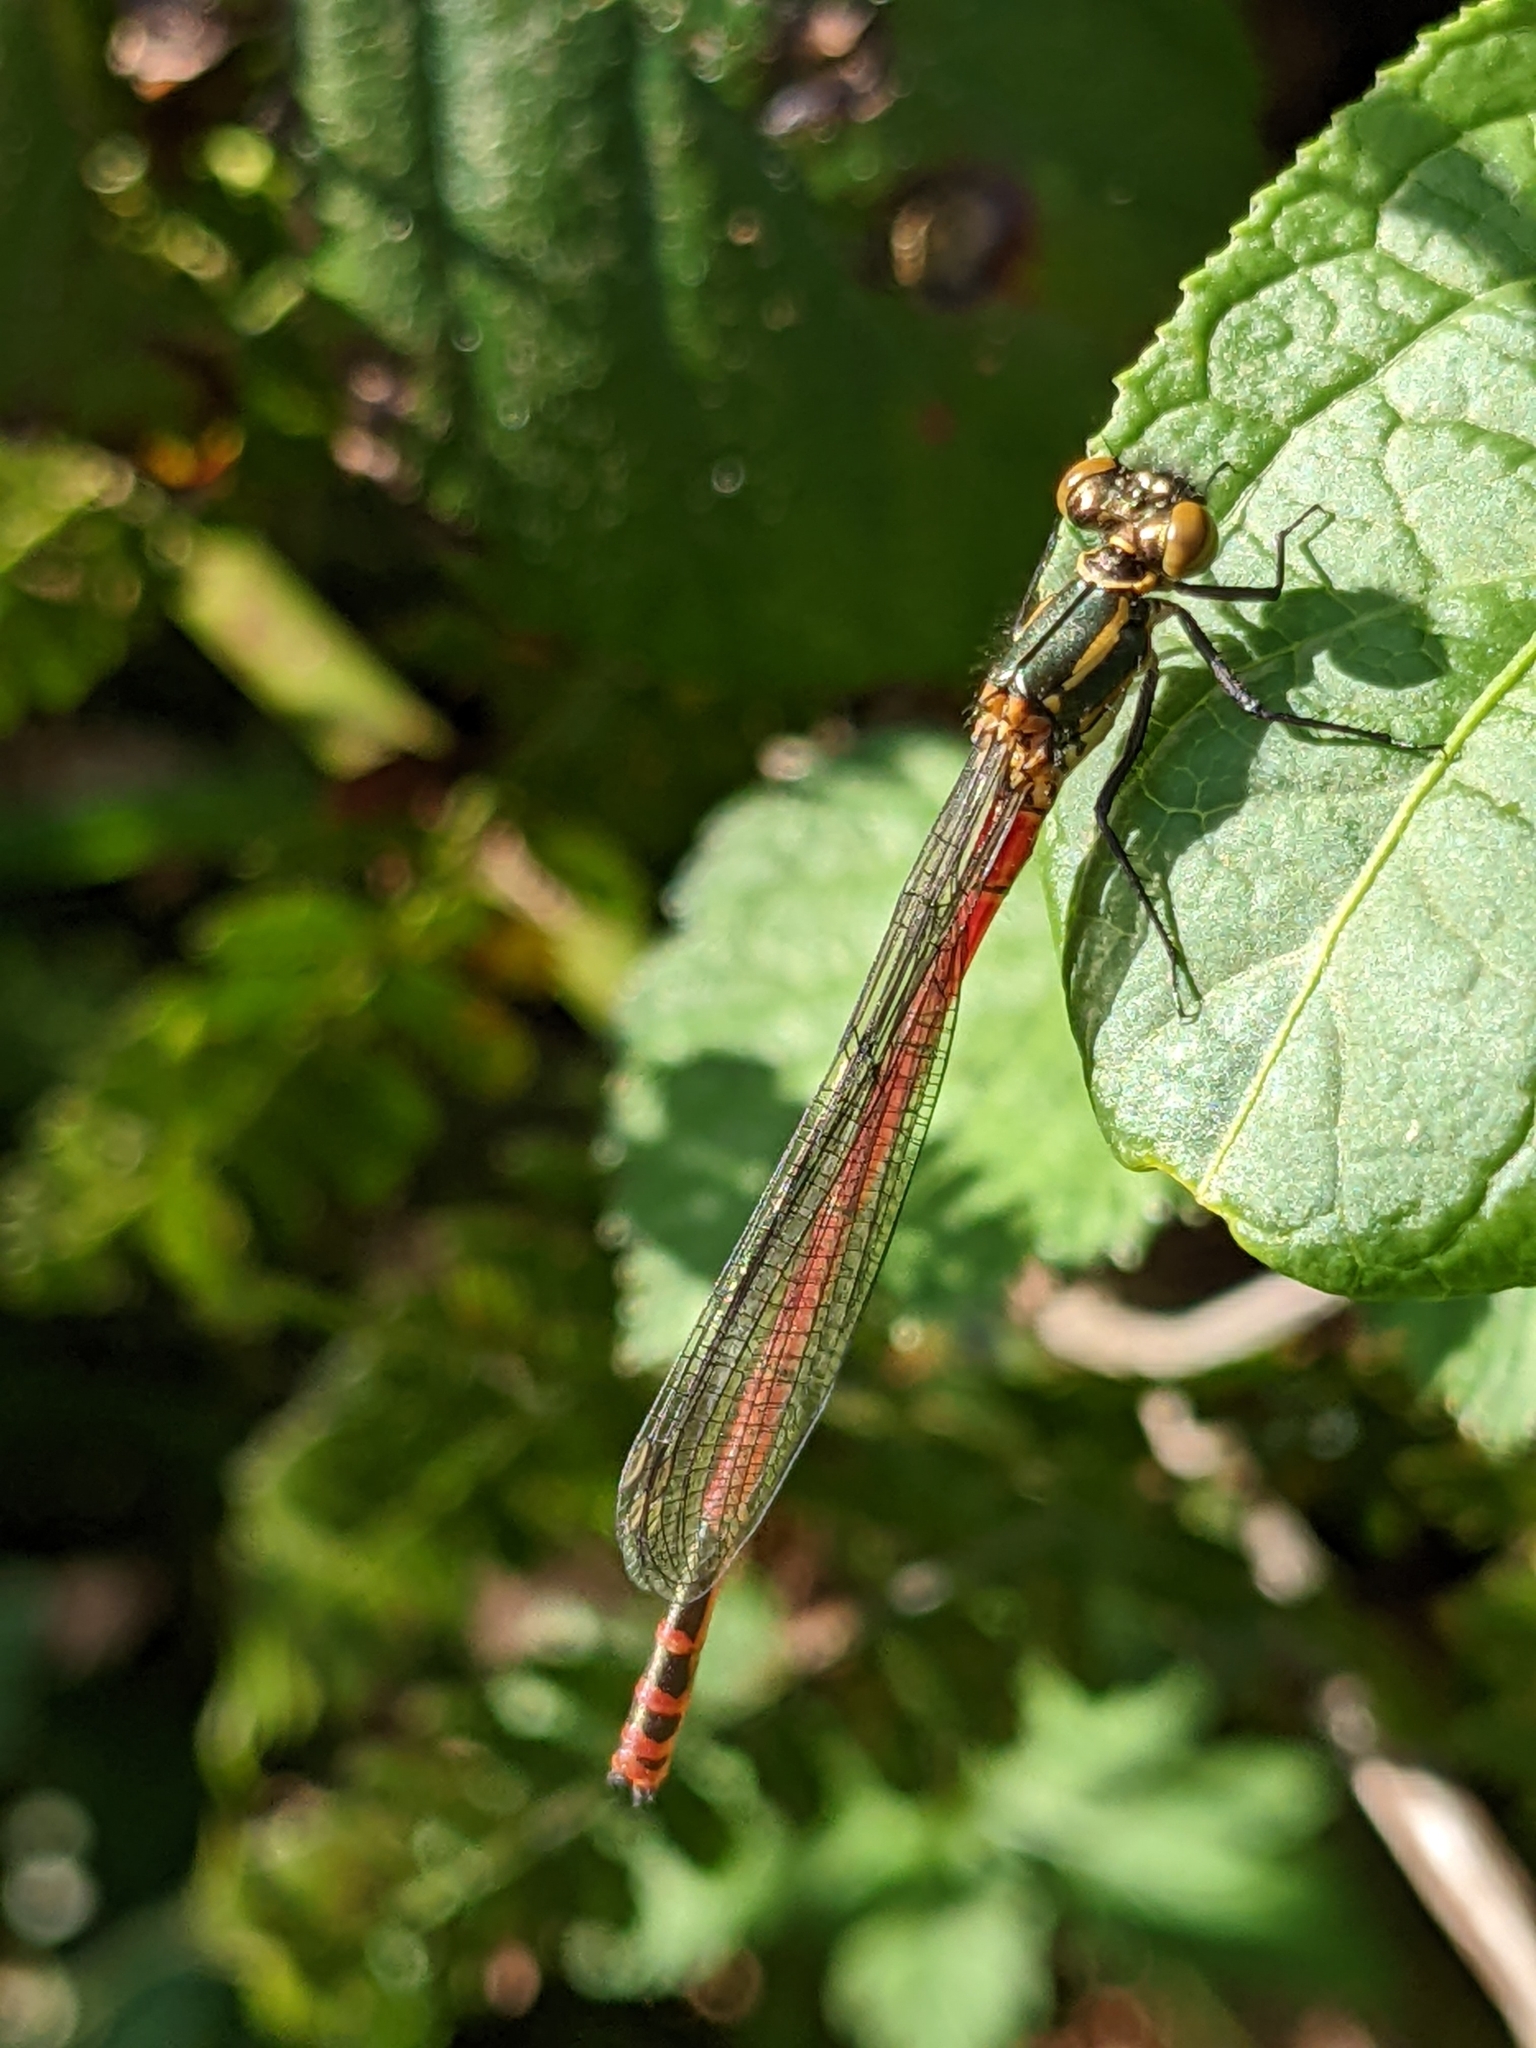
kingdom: Animalia
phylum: Arthropoda
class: Insecta
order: Odonata
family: Coenagrionidae
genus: Pyrrhosoma
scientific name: Pyrrhosoma nymphula
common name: Large red damsel
